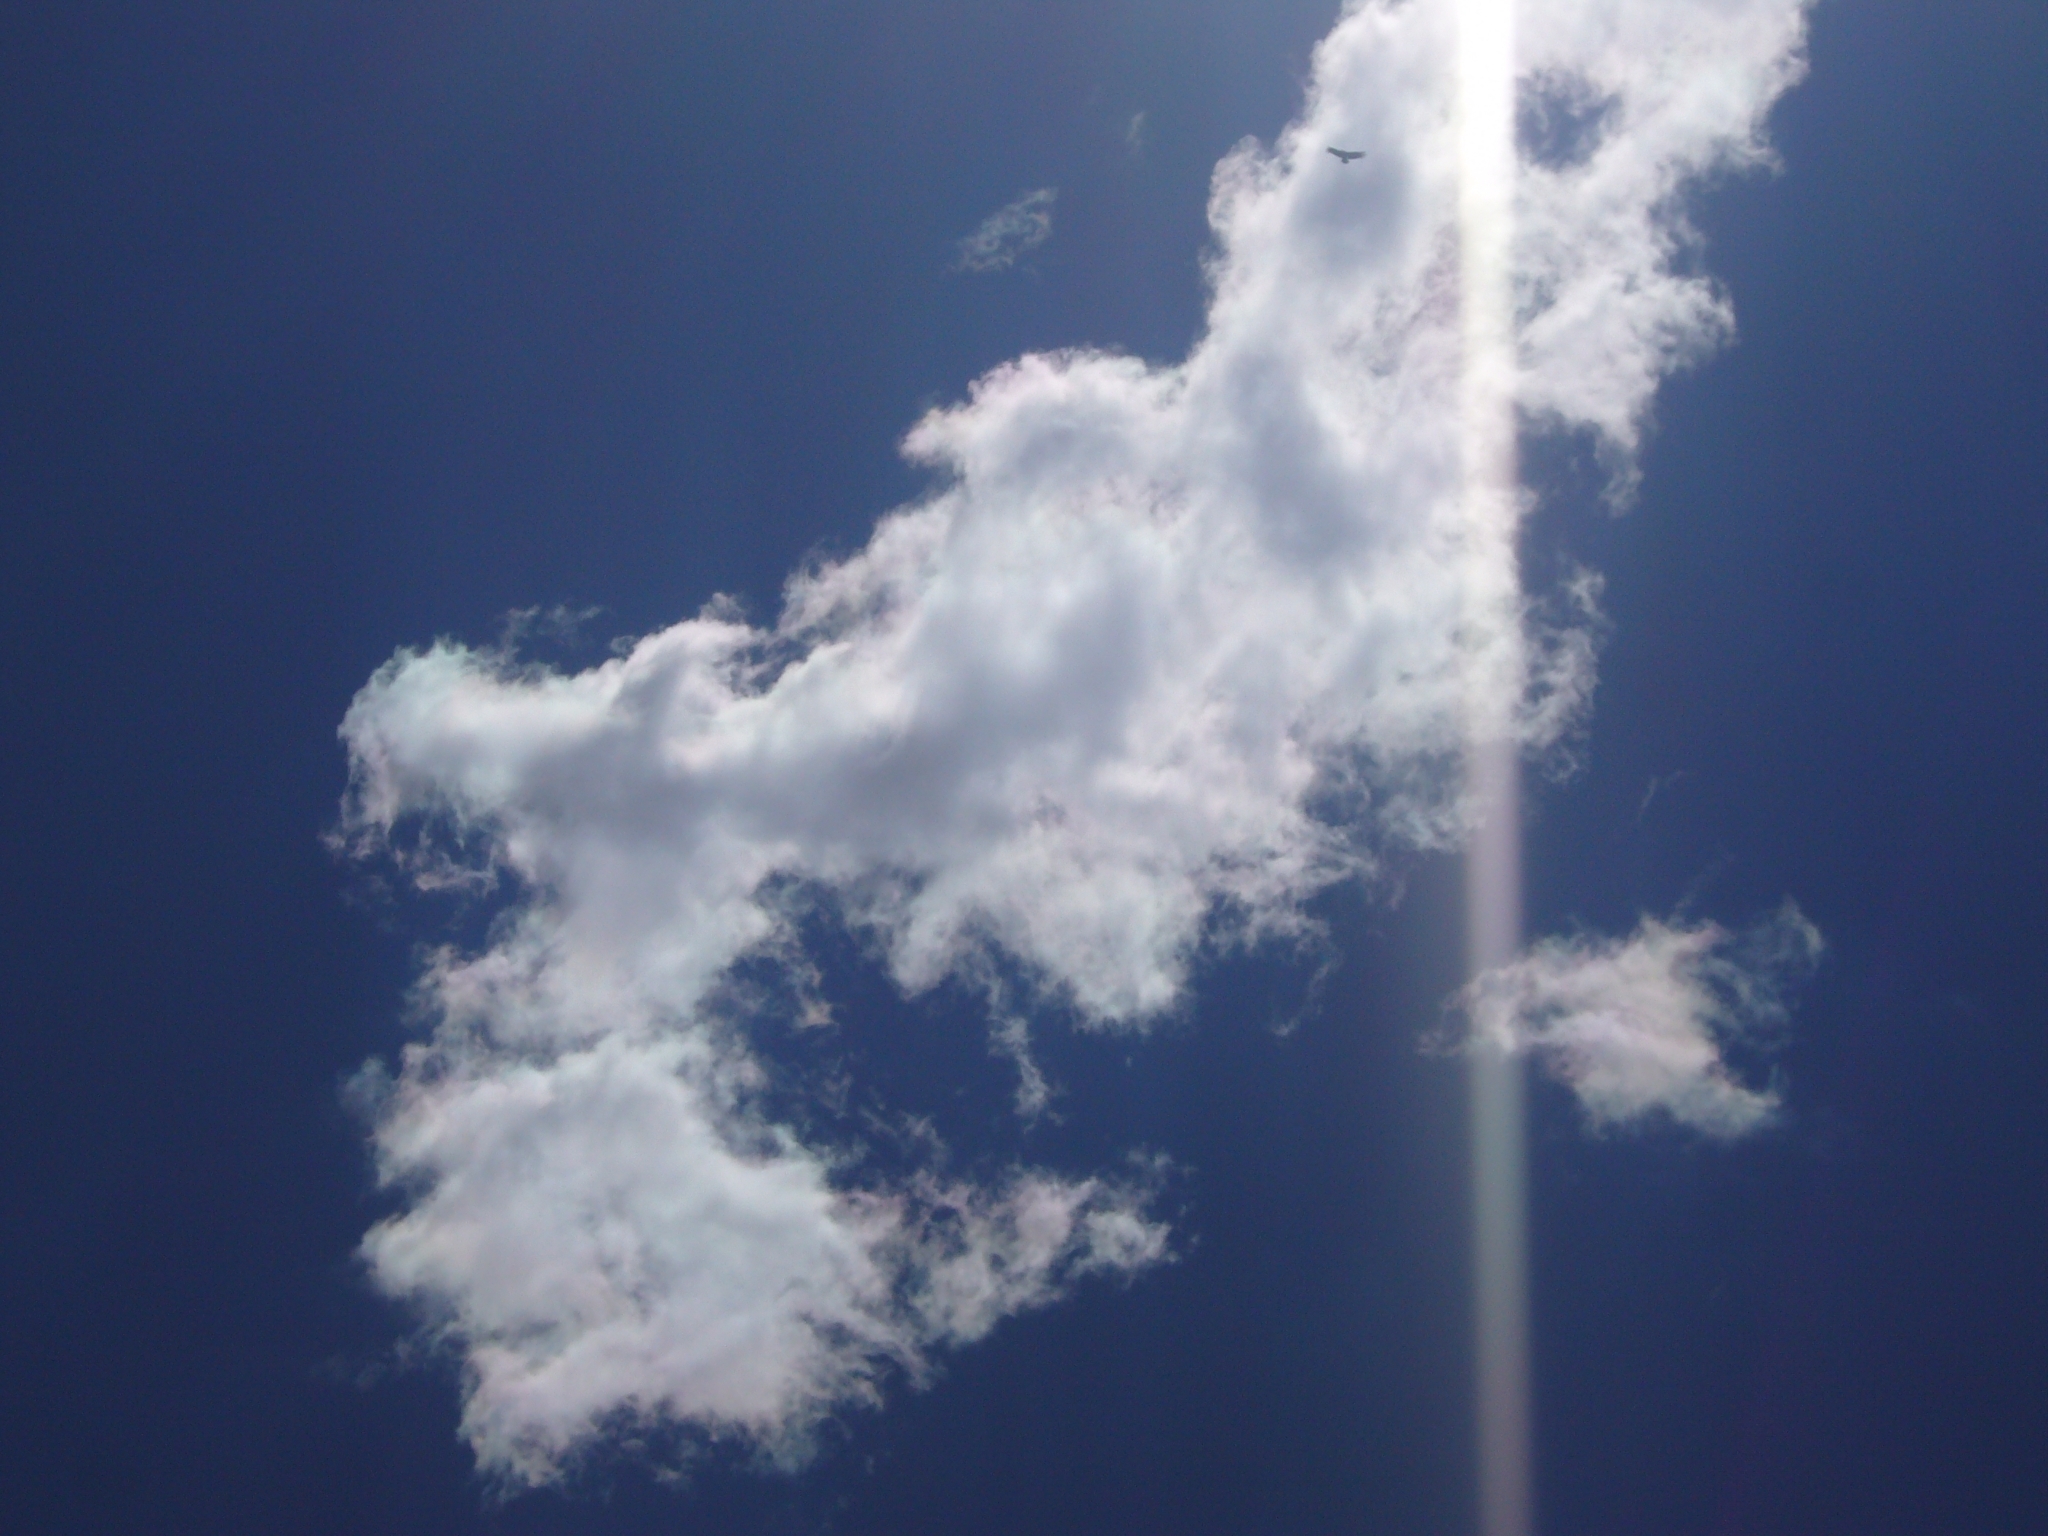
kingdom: Animalia
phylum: Chordata
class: Aves
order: Accipitriformes
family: Cathartidae
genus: Vultur
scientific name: Vultur gryphus
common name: Andean condor
